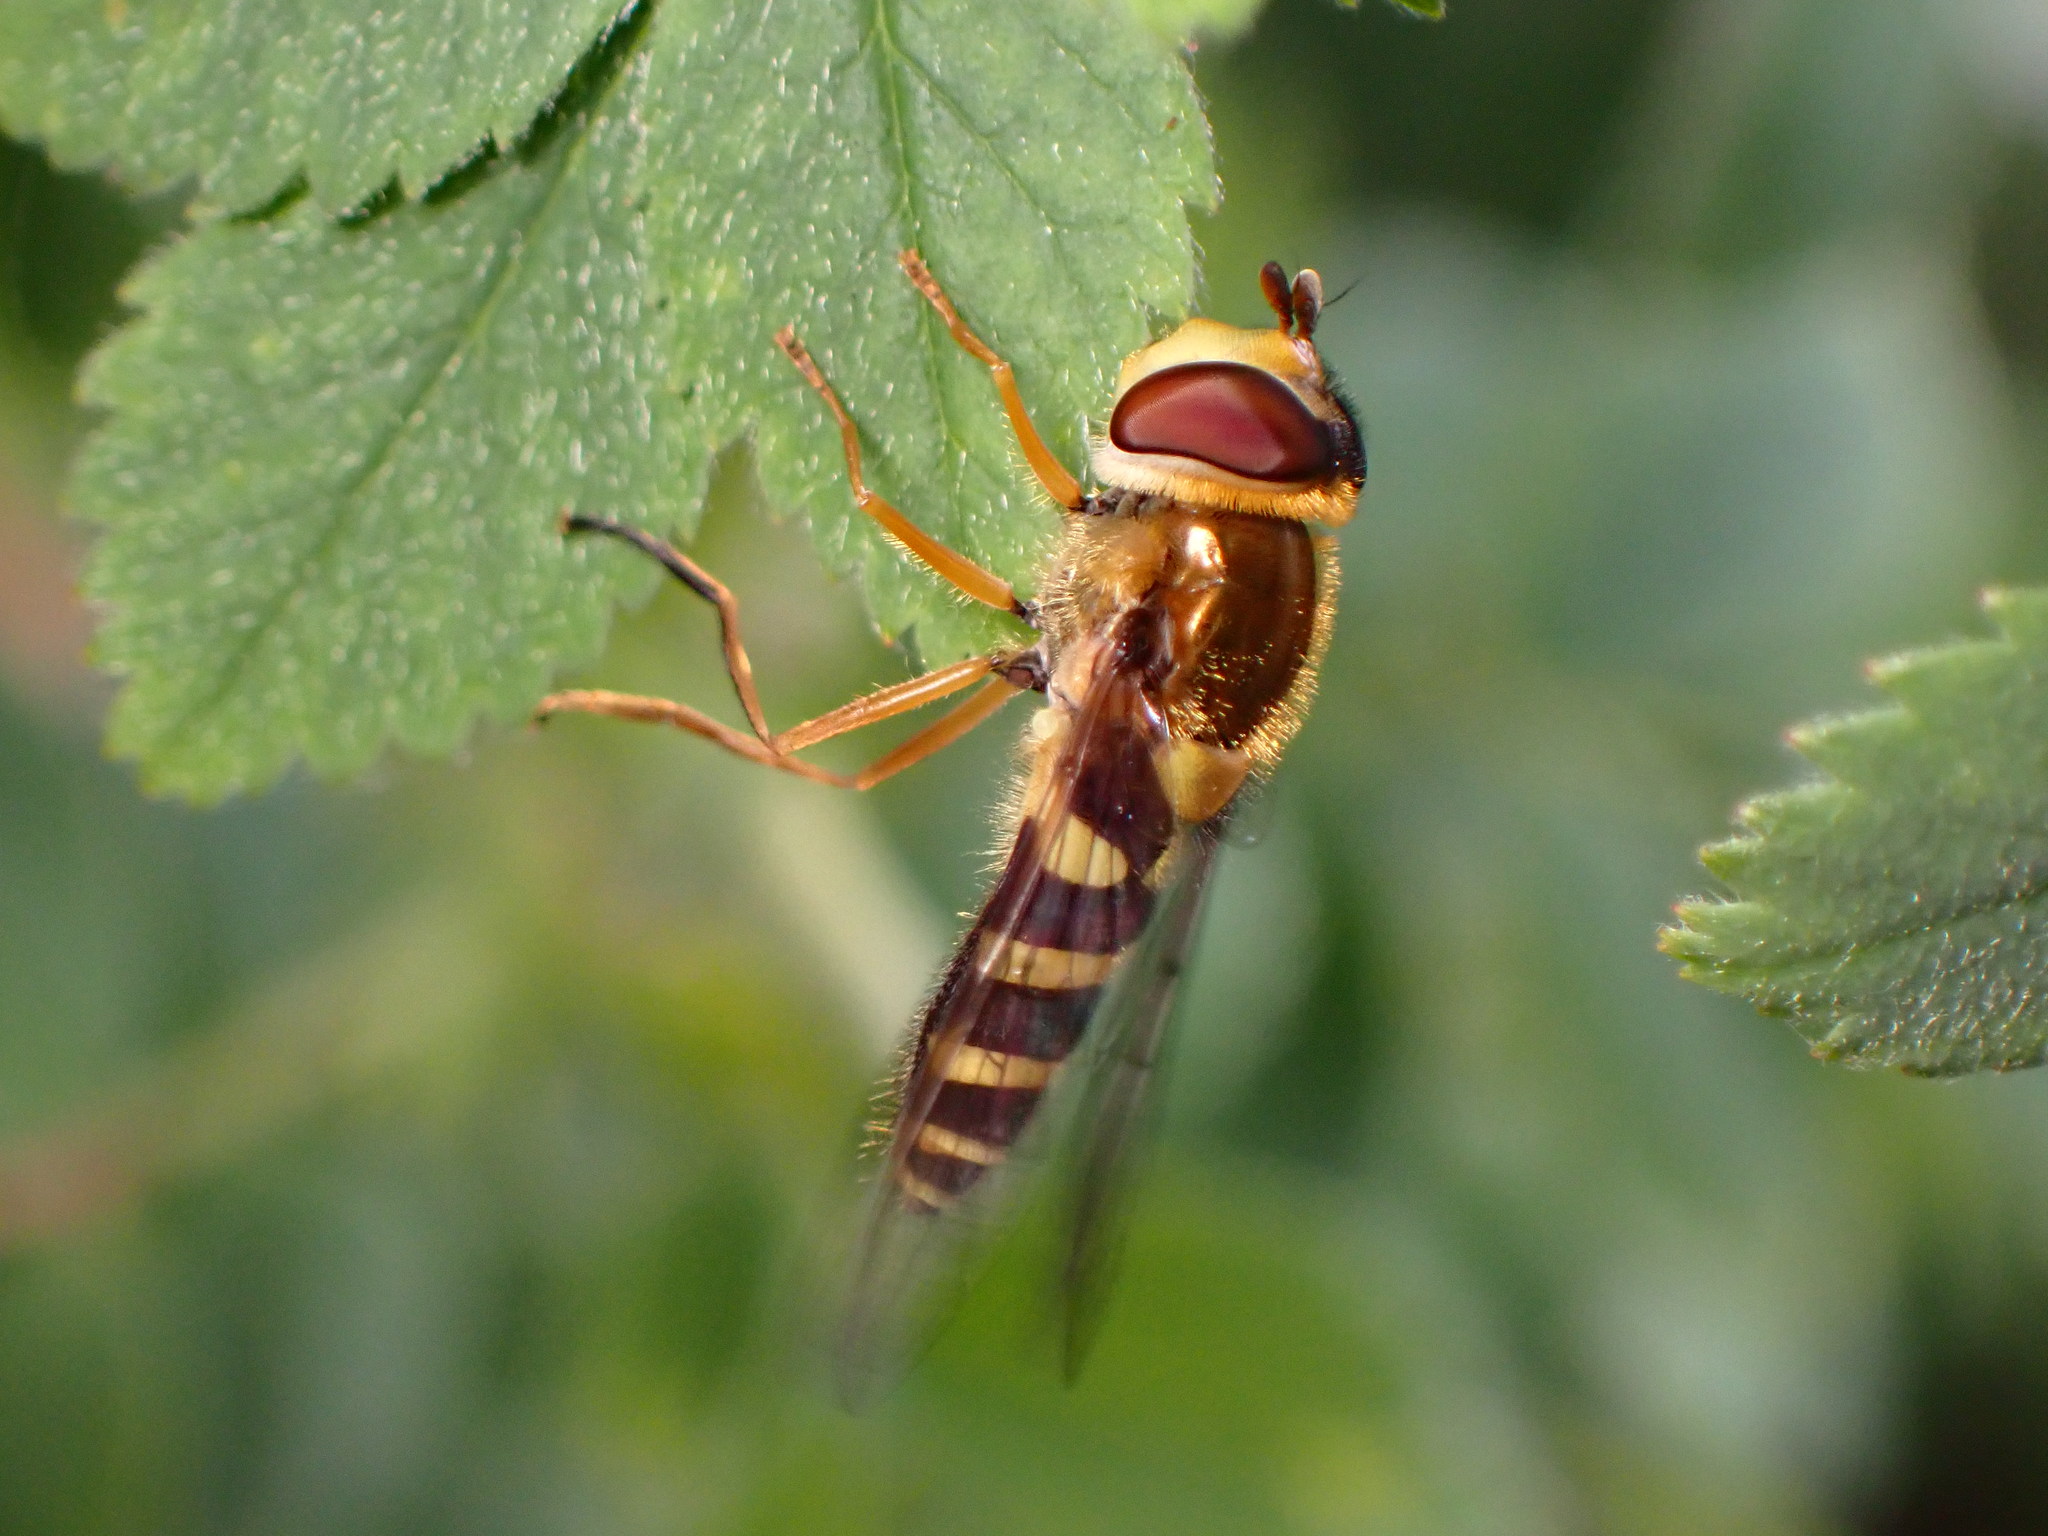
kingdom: Animalia
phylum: Arthropoda
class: Insecta
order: Diptera
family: Syrphidae
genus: Syrphus
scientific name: Syrphus opinator
